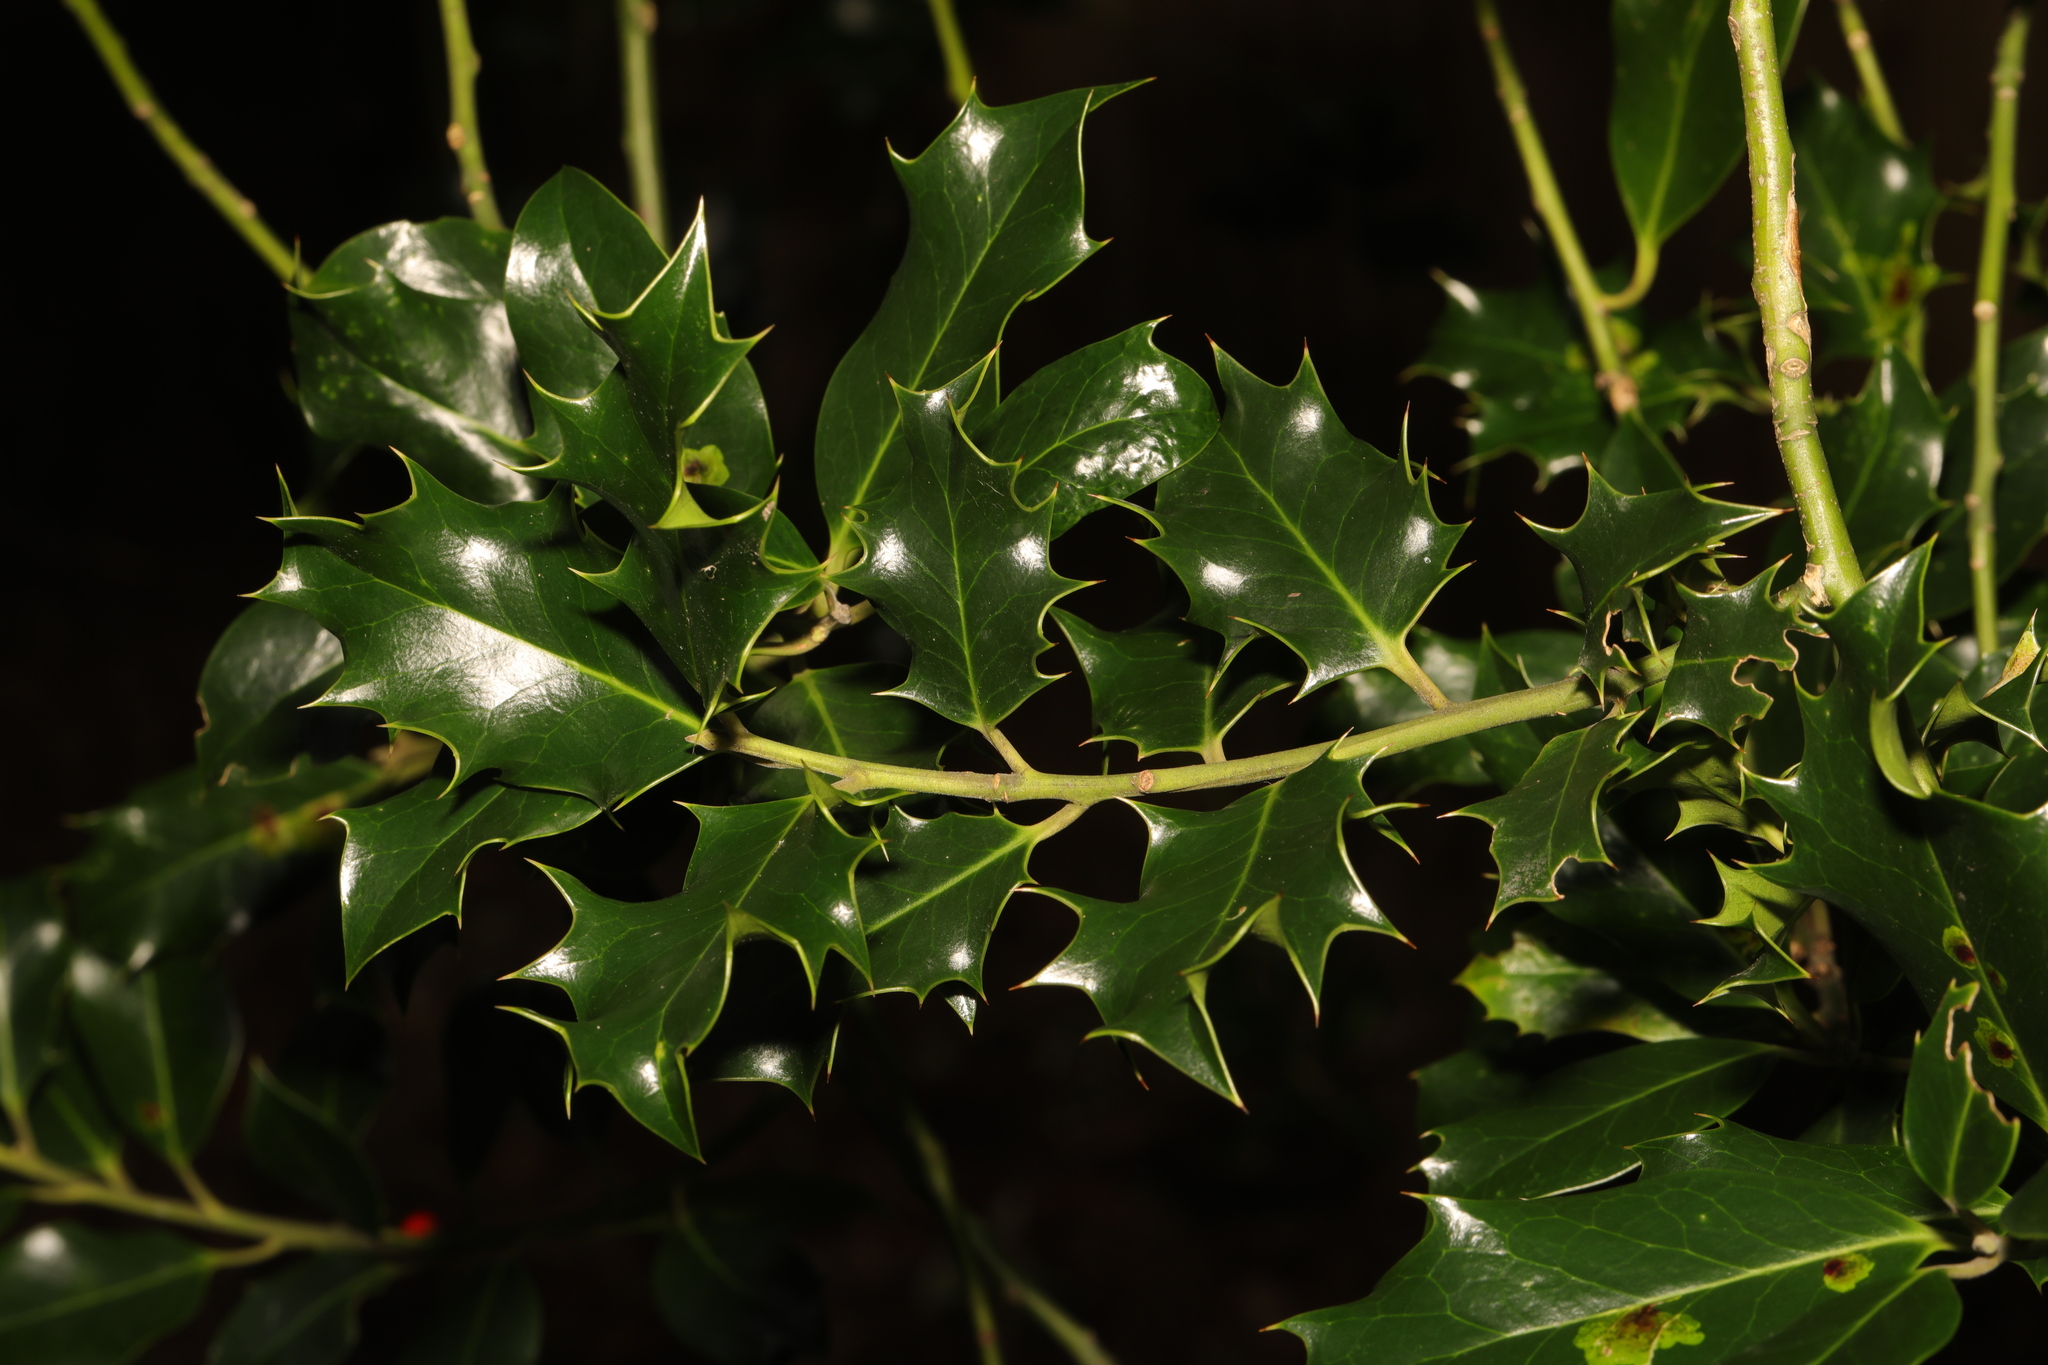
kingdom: Plantae
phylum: Tracheophyta
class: Magnoliopsida
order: Aquifoliales
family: Aquifoliaceae
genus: Ilex
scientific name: Ilex aquifolium
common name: English holly
